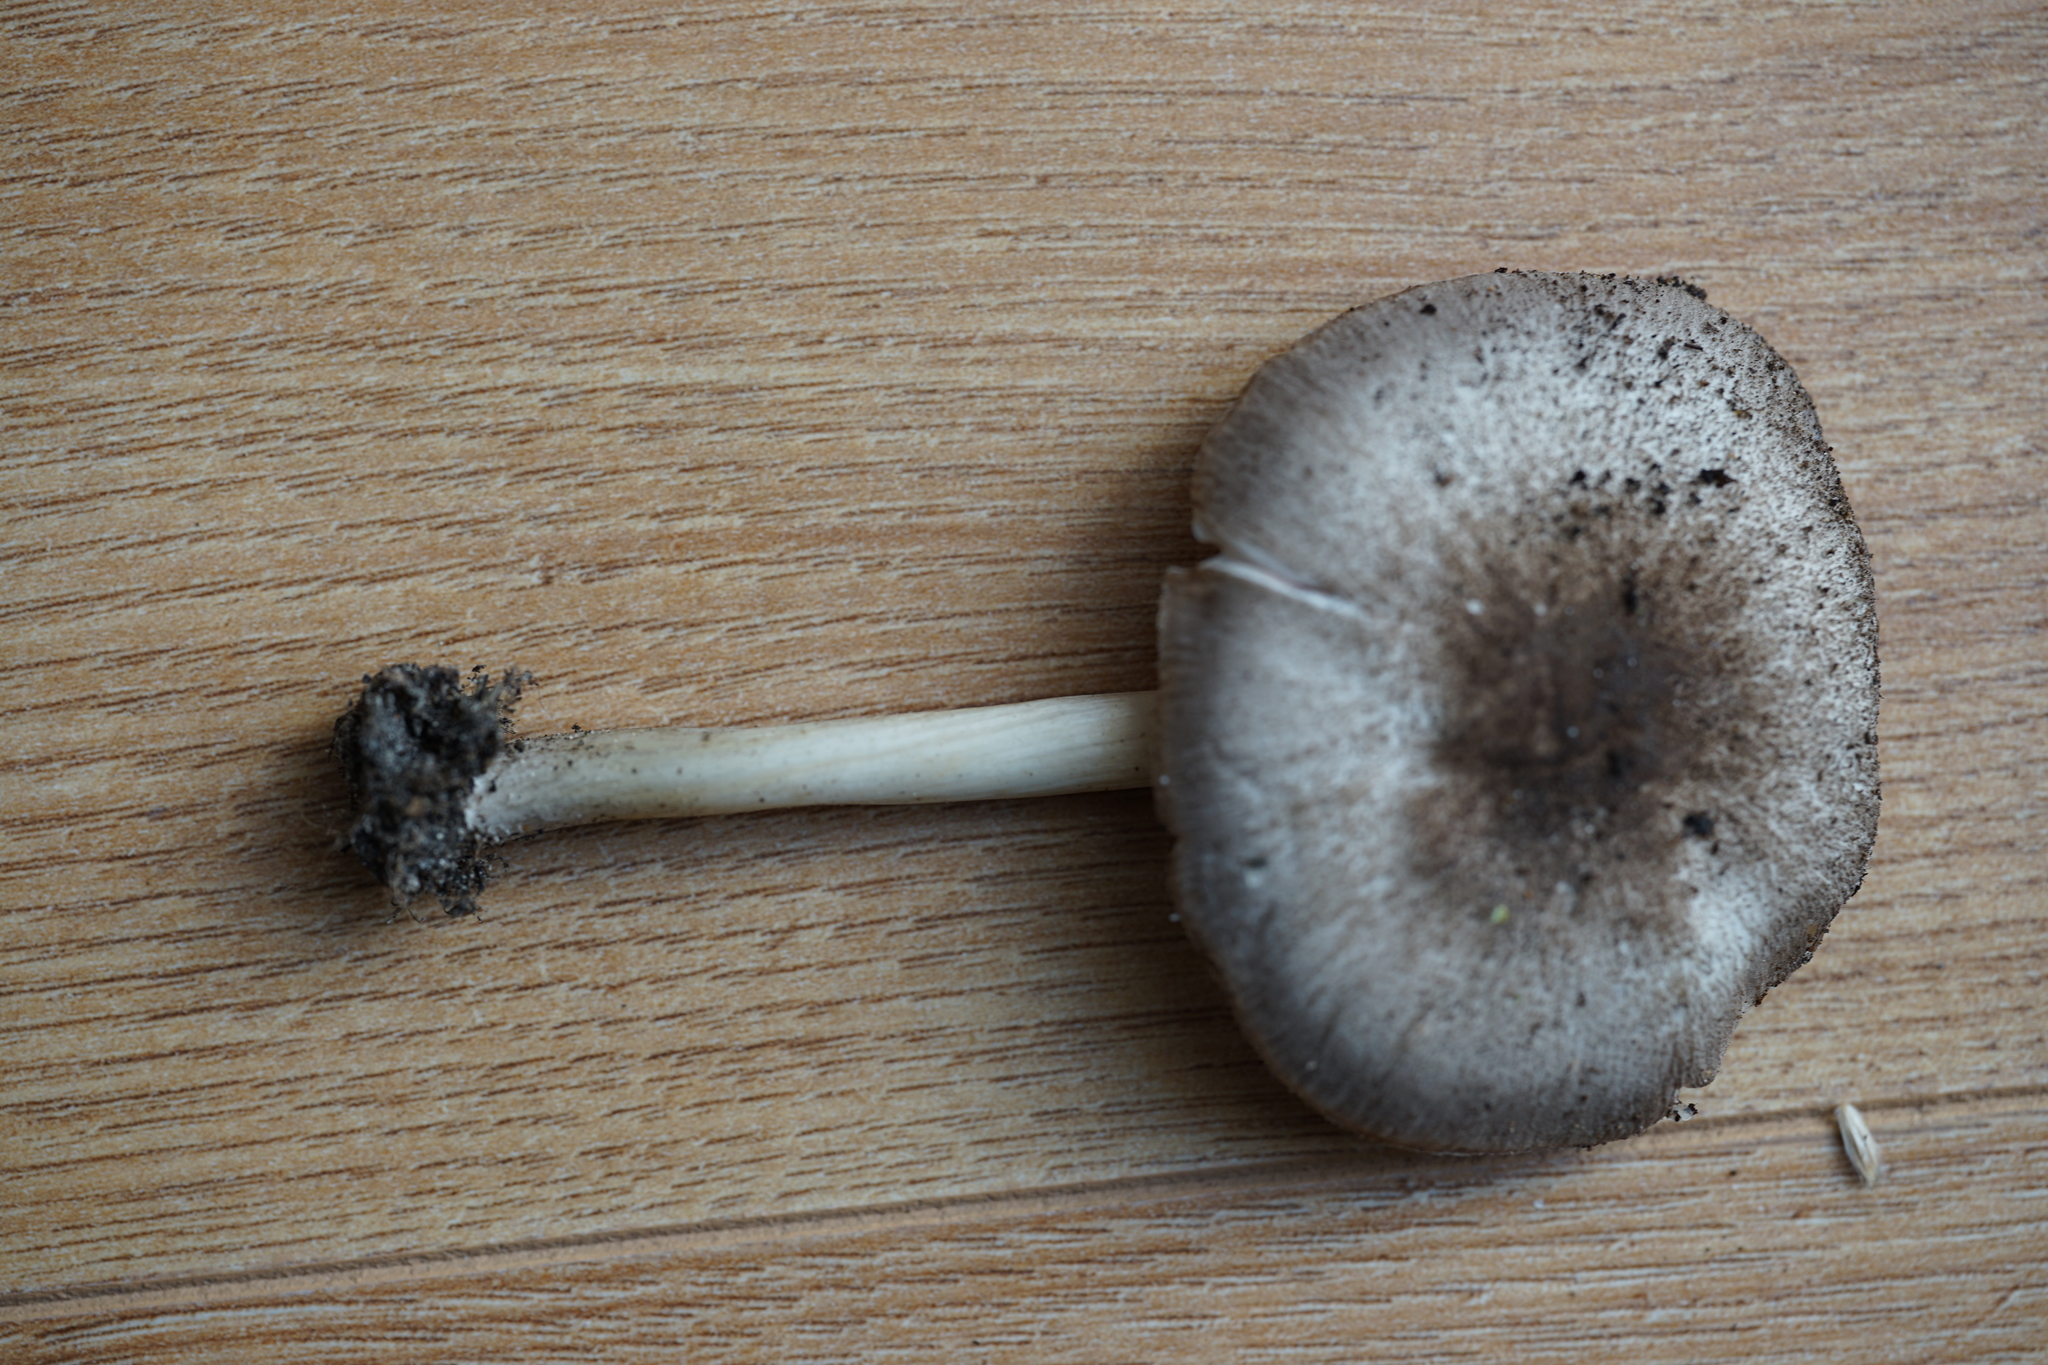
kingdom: Fungi
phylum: Basidiomycota
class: Agaricomycetes
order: Agaricales
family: Pluteaceae
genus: Pluteus
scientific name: Pluteus ephebeus
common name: Sooty shield
